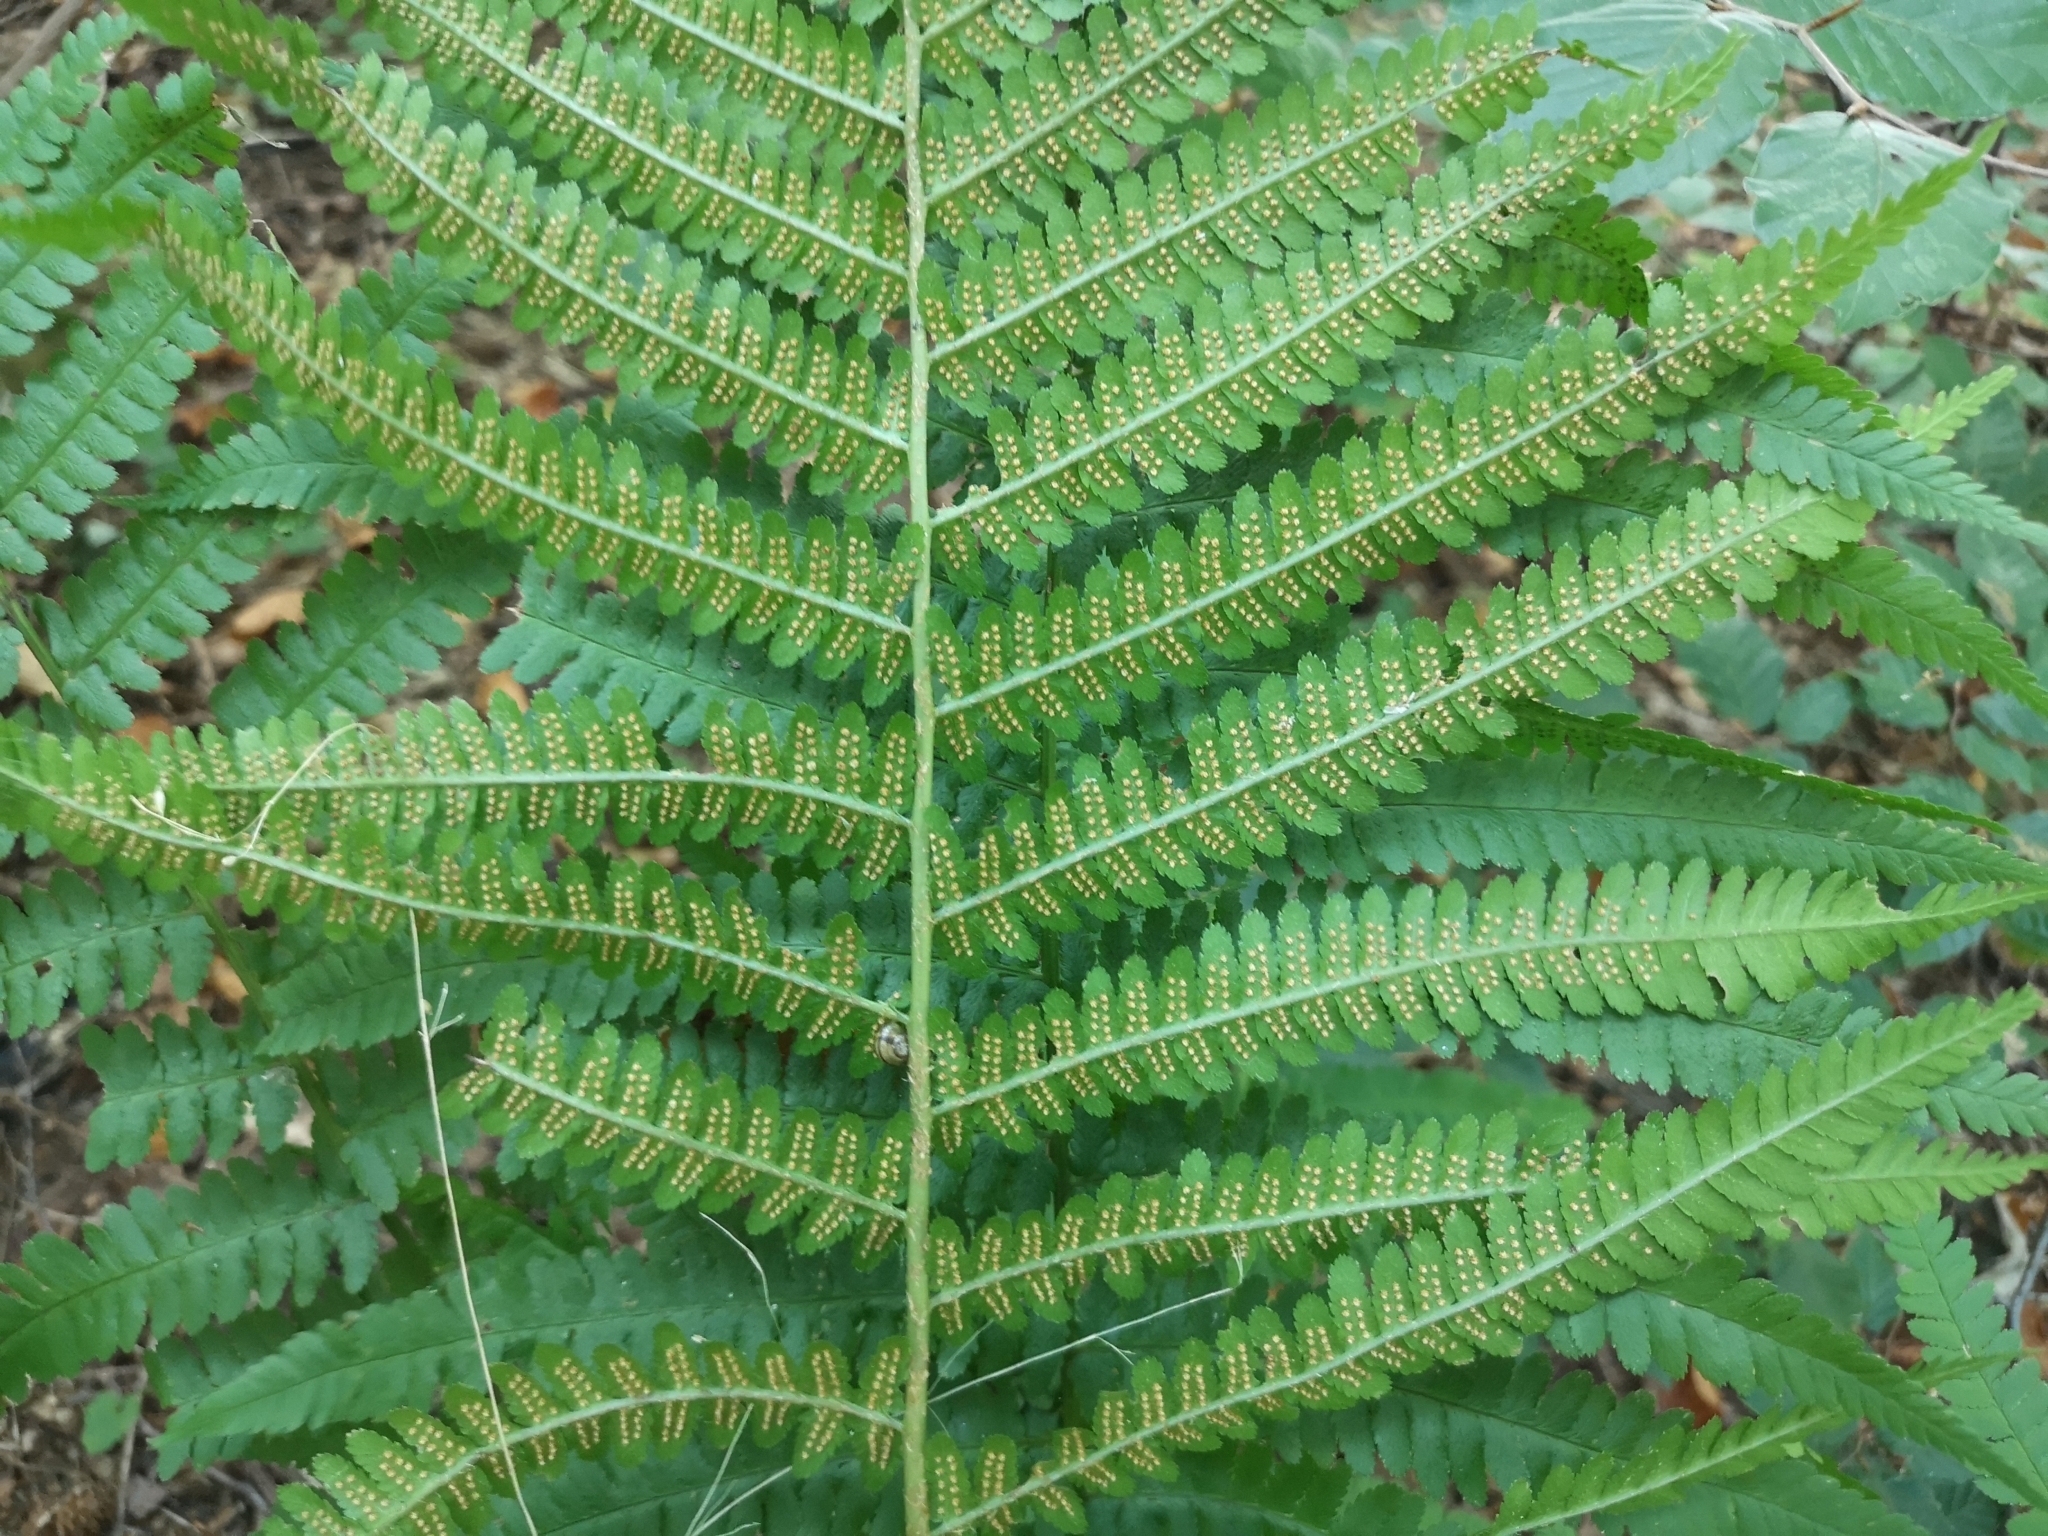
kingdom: Plantae
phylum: Tracheophyta
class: Polypodiopsida
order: Polypodiales
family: Dryopteridaceae
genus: Dryopteris
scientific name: Dryopteris filix-mas
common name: Male fern
